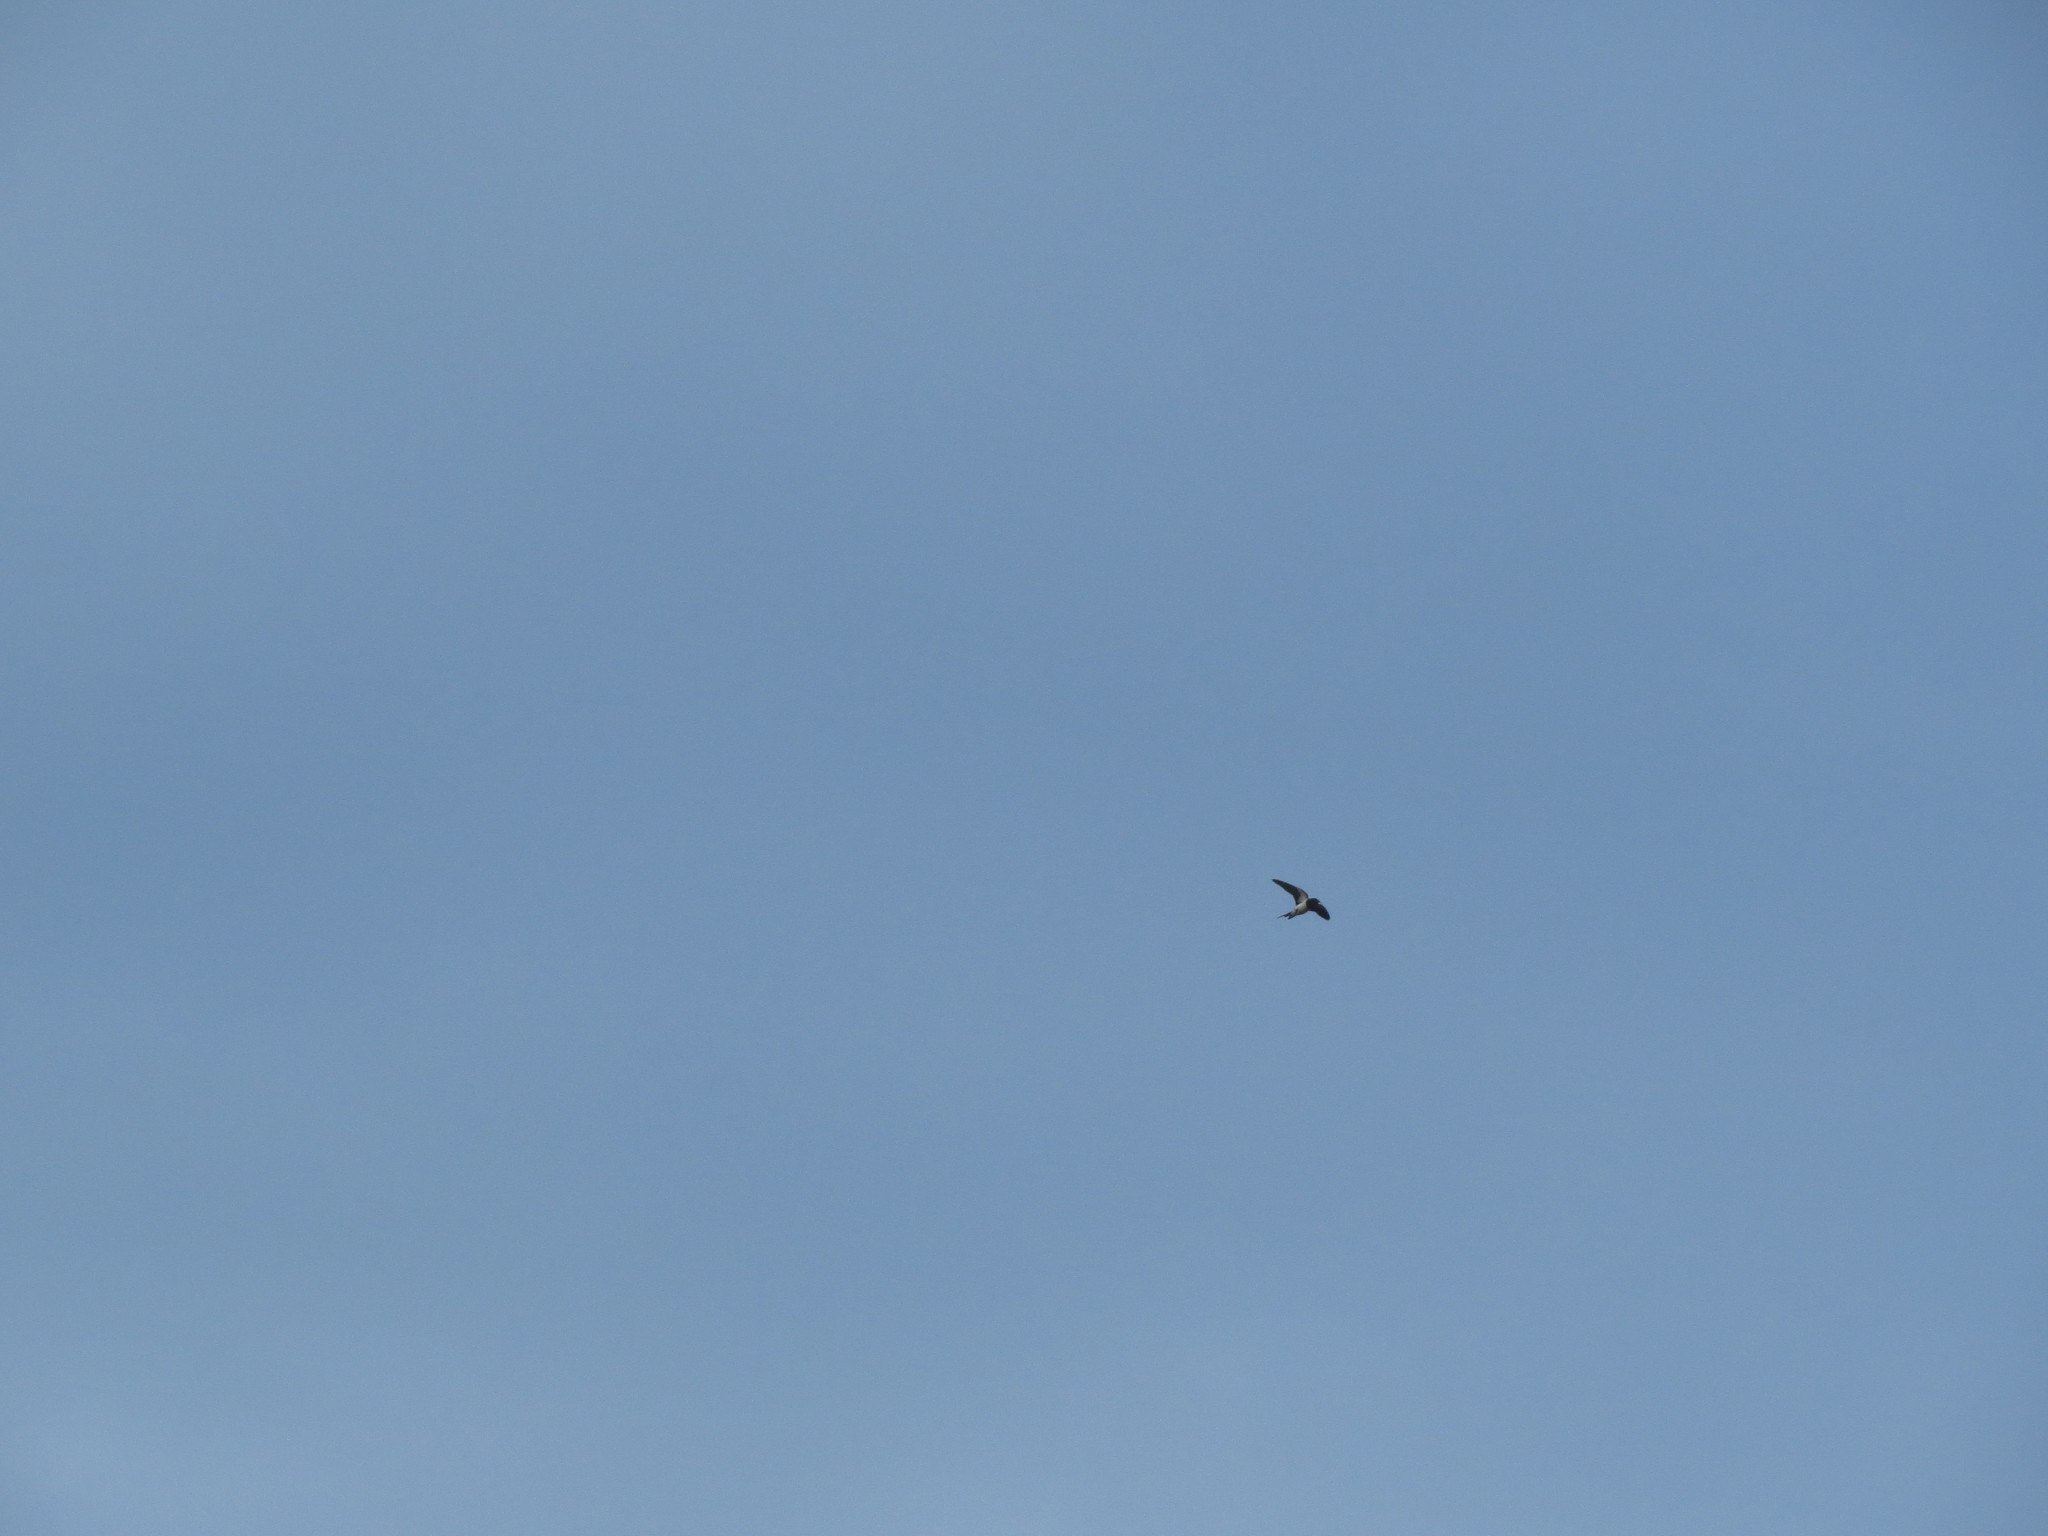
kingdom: Animalia
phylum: Chordata
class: Aves
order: Passeriformes
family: Hirundinidae
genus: Hirundo
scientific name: Hirundo rustica
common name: Barn swallow
